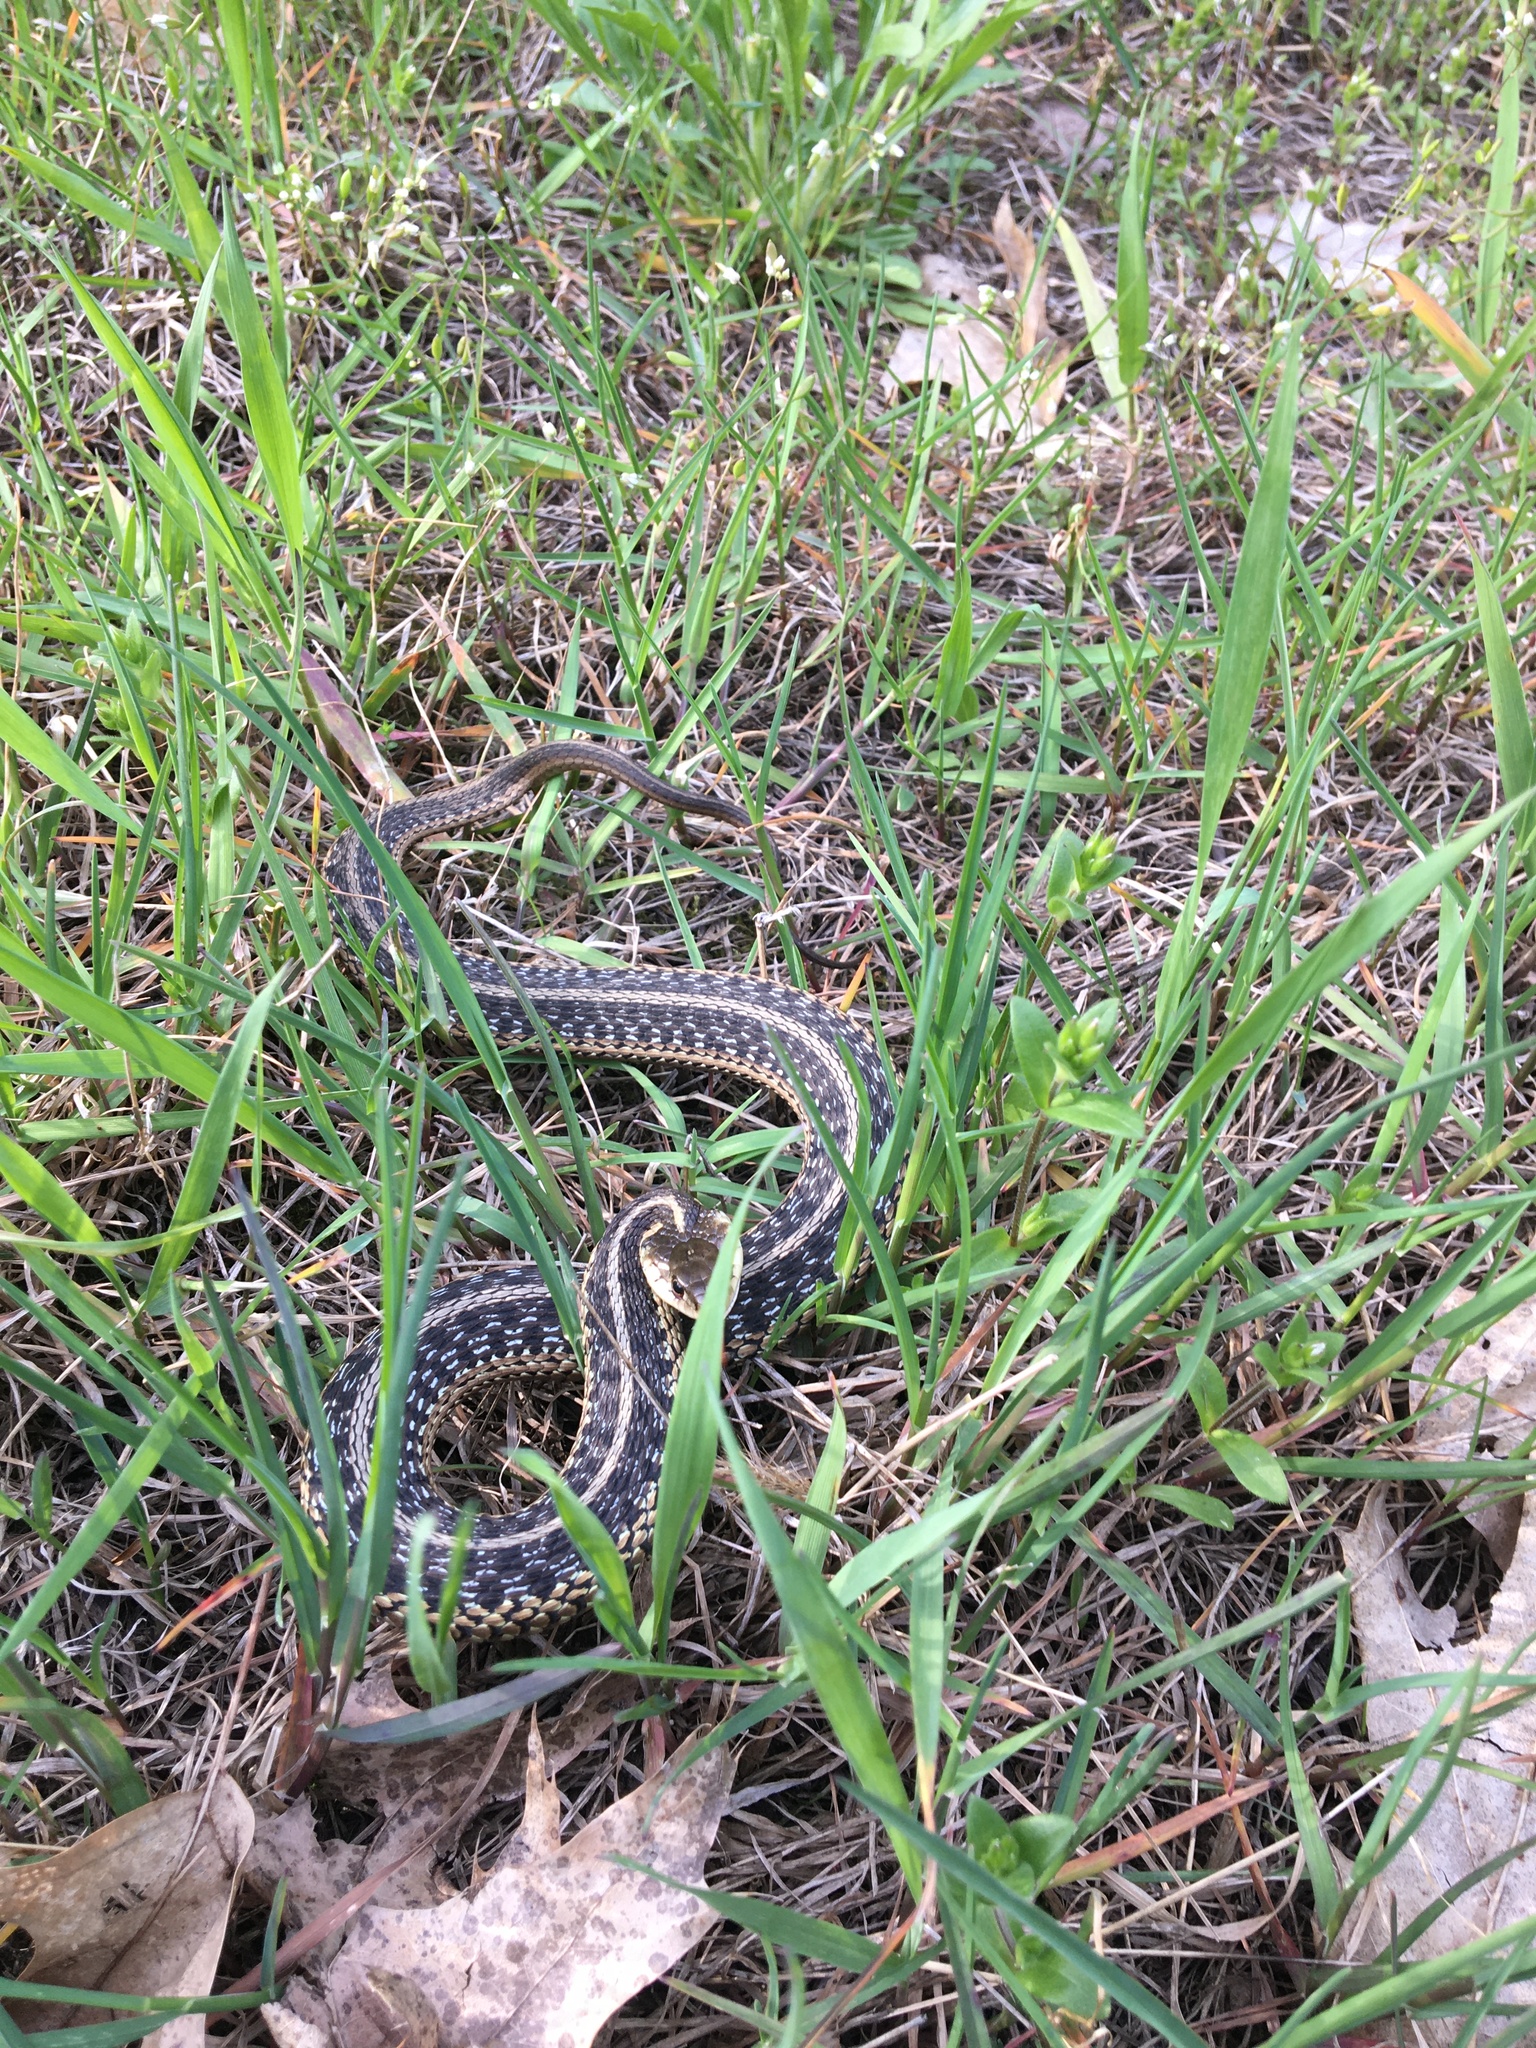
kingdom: Animalia
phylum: Chordata
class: Squamata
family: Colubridae
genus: Thamnophis
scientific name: Thamnophis sirtalis
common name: Common garter snake
